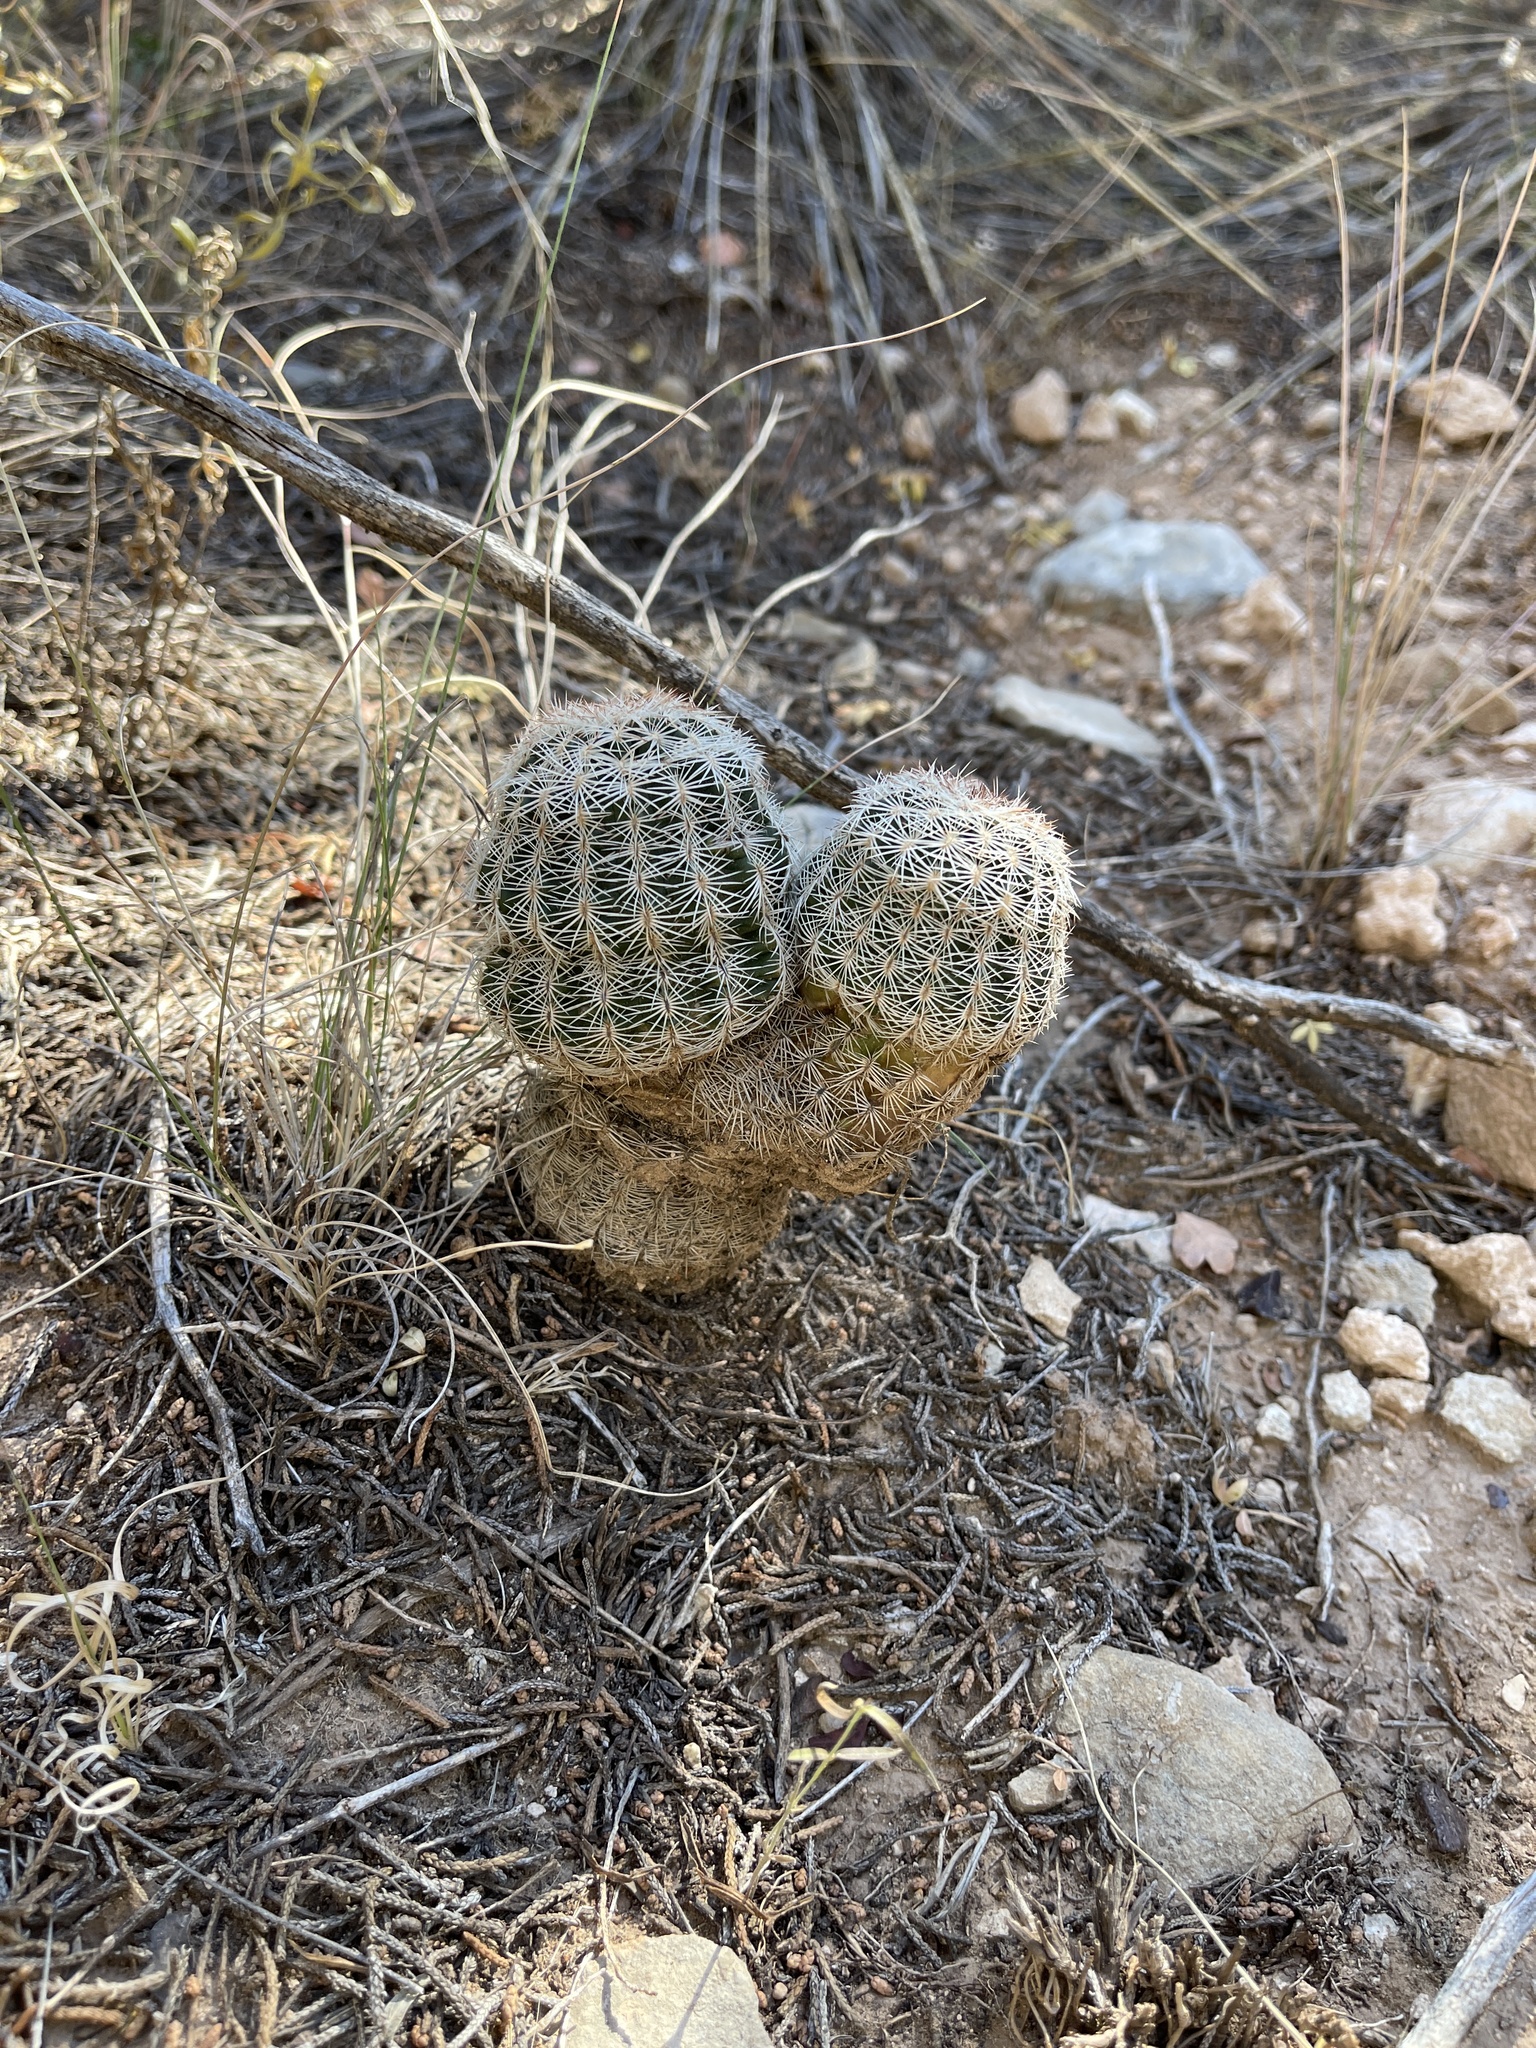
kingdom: Plantae
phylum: Tracheophyta
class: Magnoliopsida
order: Caryophyllales
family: Cactaceae
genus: Echinocereus
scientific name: Echinocereus reichenbachii
